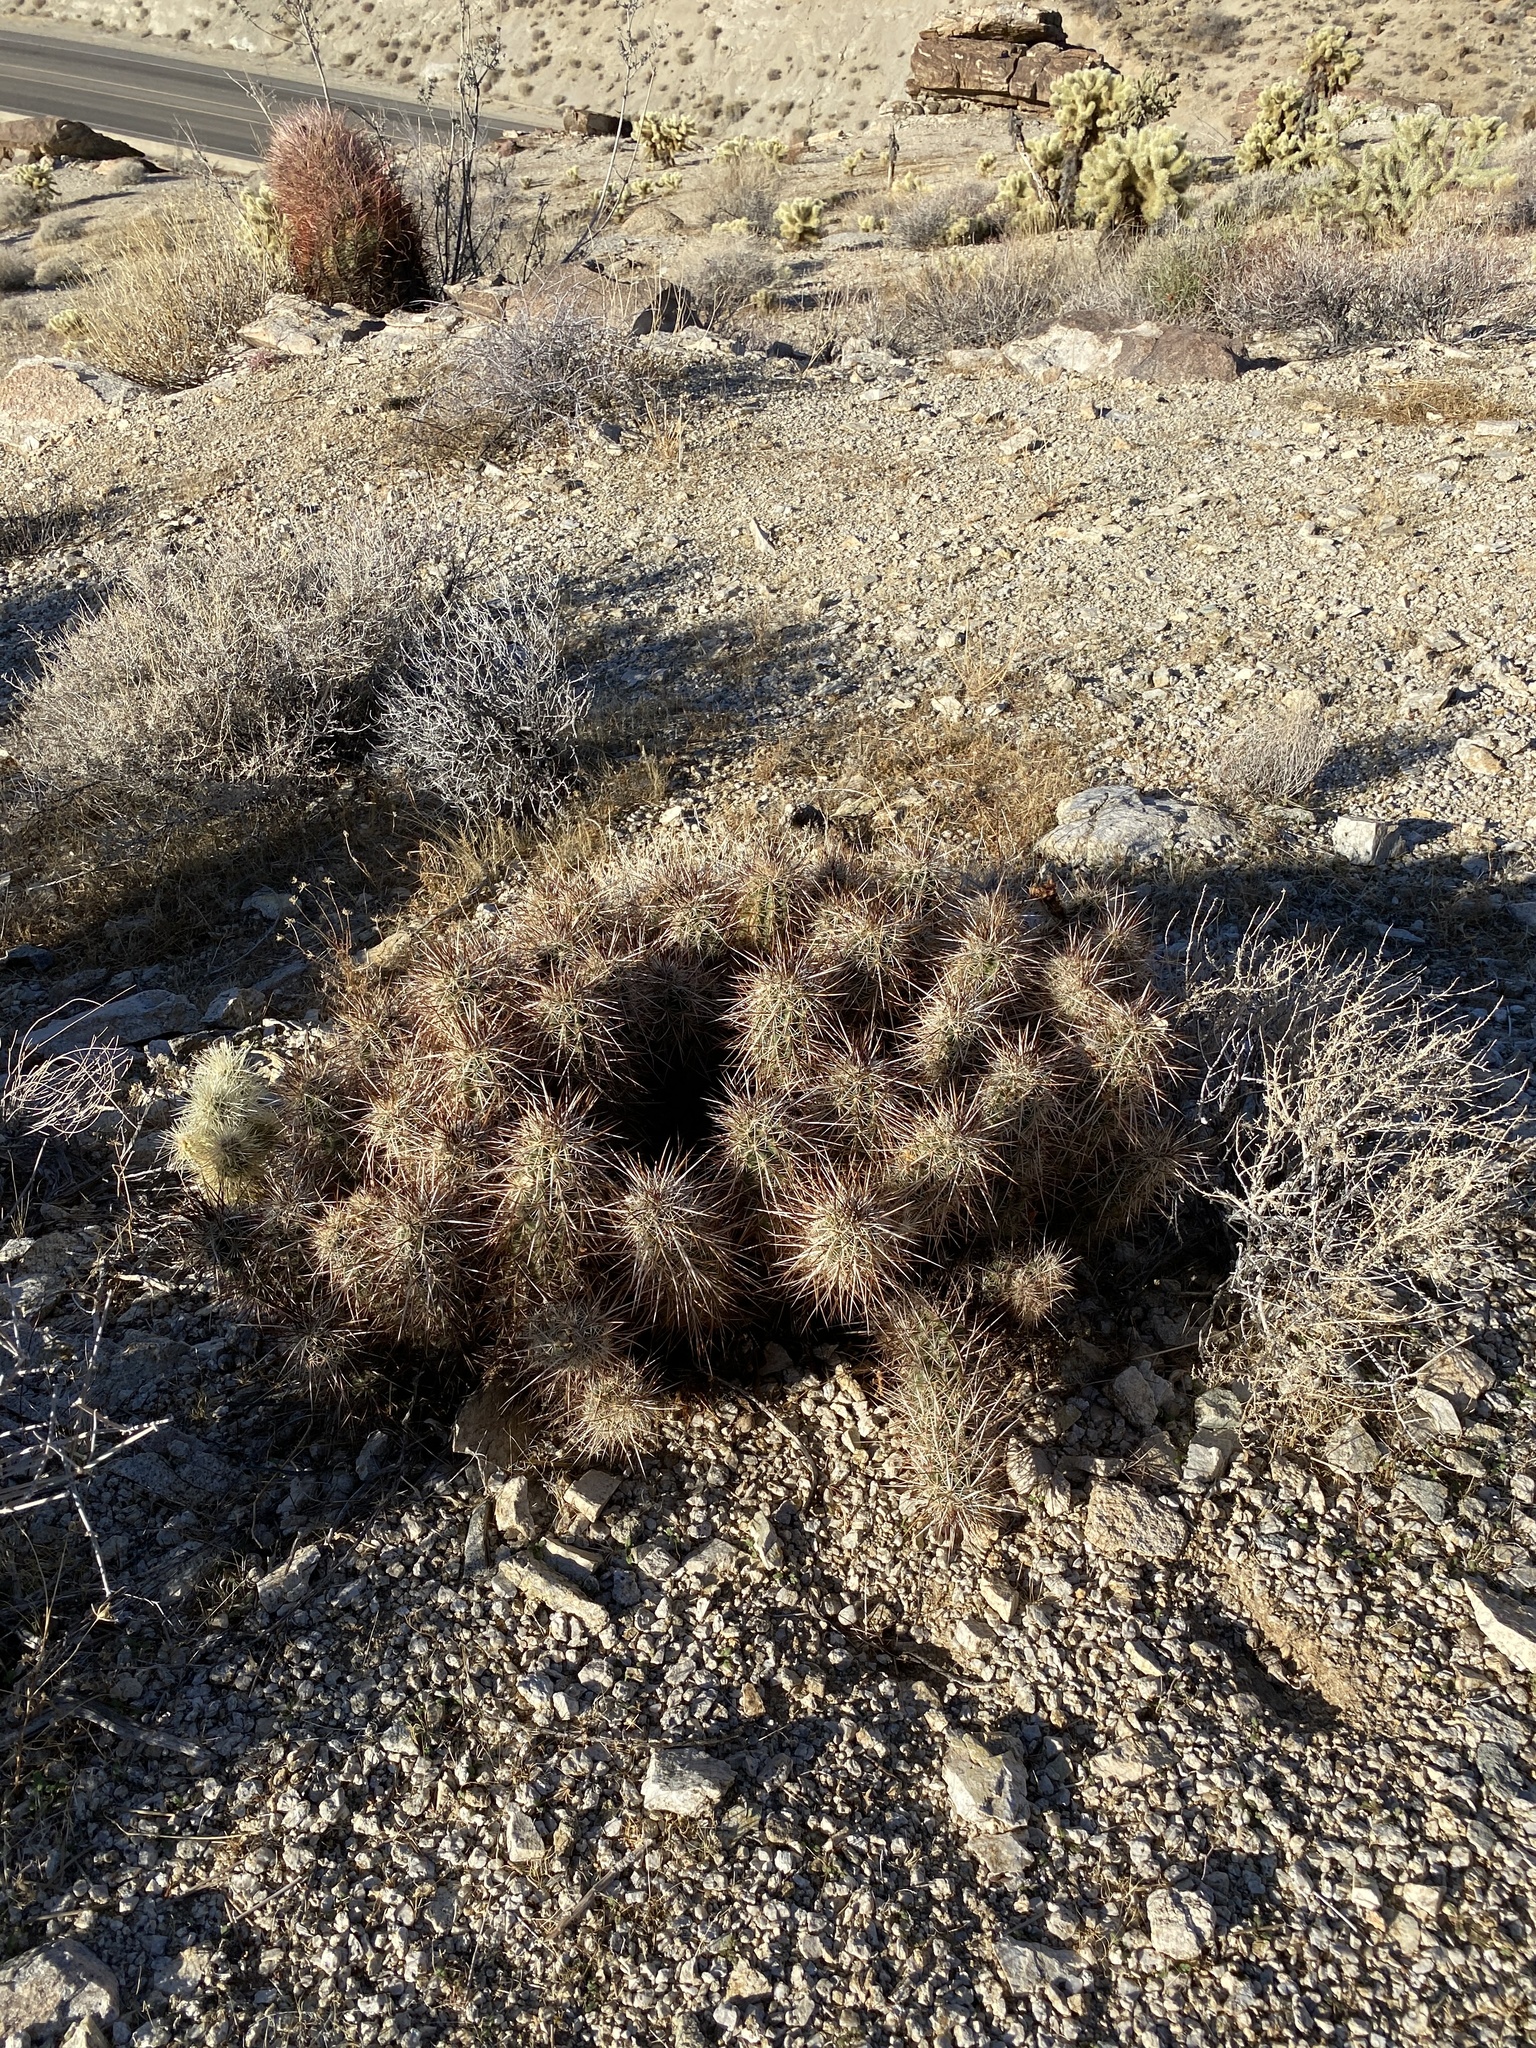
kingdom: Plantae
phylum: Tracheophyta
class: Magnoliopsida
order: Caryophyllales
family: Cactaceae
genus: Echinocereus
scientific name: Echinocereus engelmannii
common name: Engelmann's hedgehog cactus
